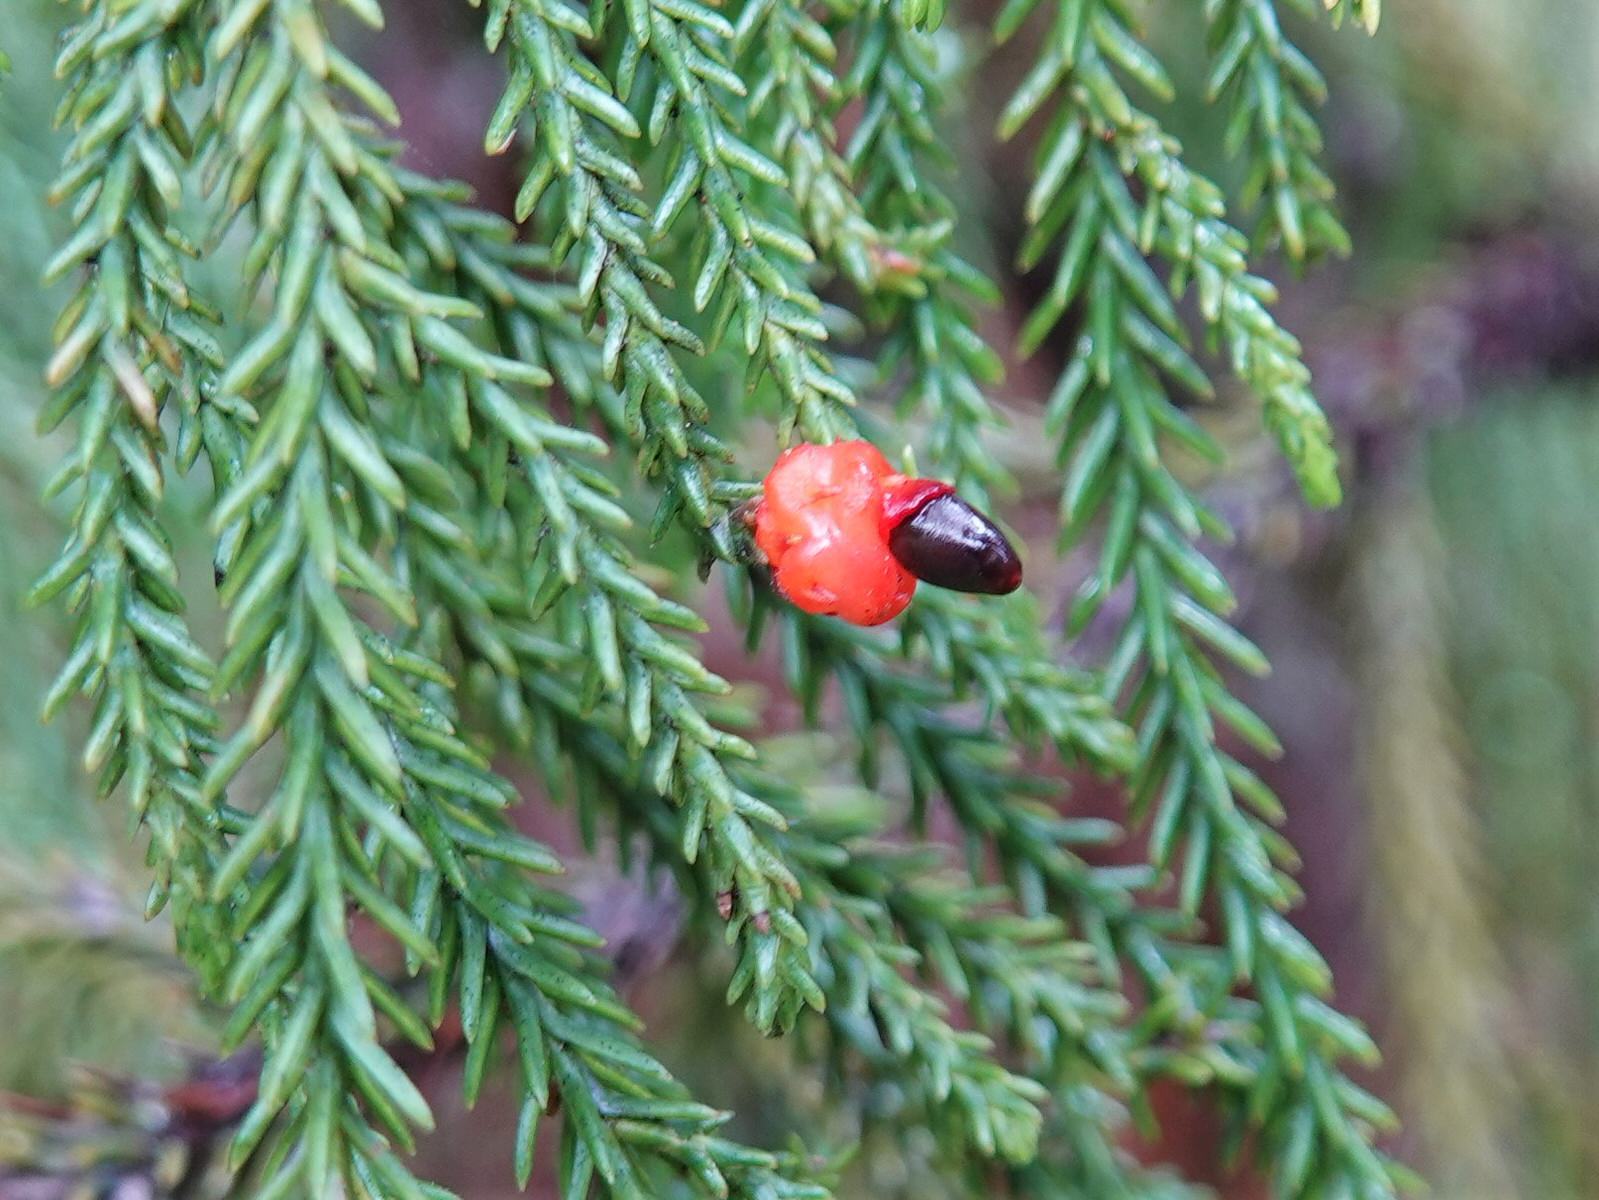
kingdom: Plantae
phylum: Tracheophyta
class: Pinopsida
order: Pinales
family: Podocarpaceae
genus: Dacrydium
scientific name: Dacrydium cupressinum
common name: Red pine
